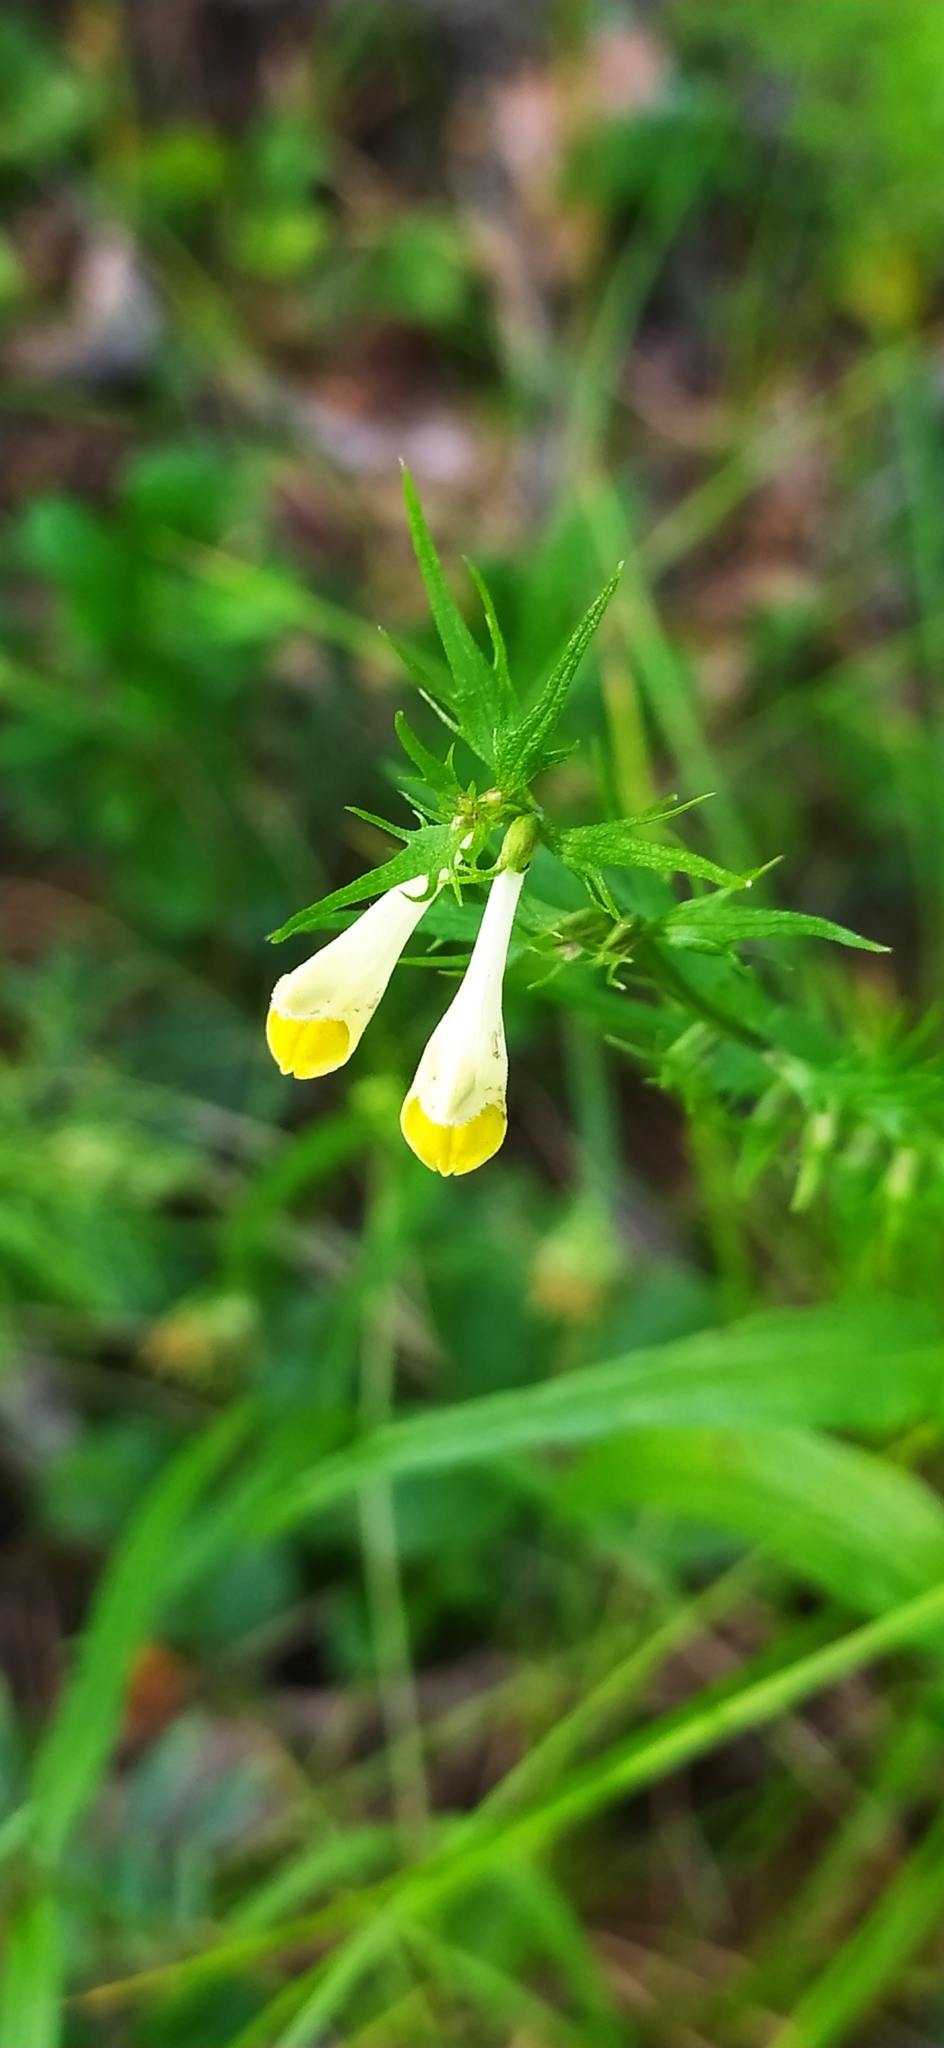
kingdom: Plantae
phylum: Tracheophyta
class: Magnoliopsida
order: Lamiales
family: Orobanchaceae
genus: Melampyrum
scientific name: Melampyrum pratense
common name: Common cow-wheat
